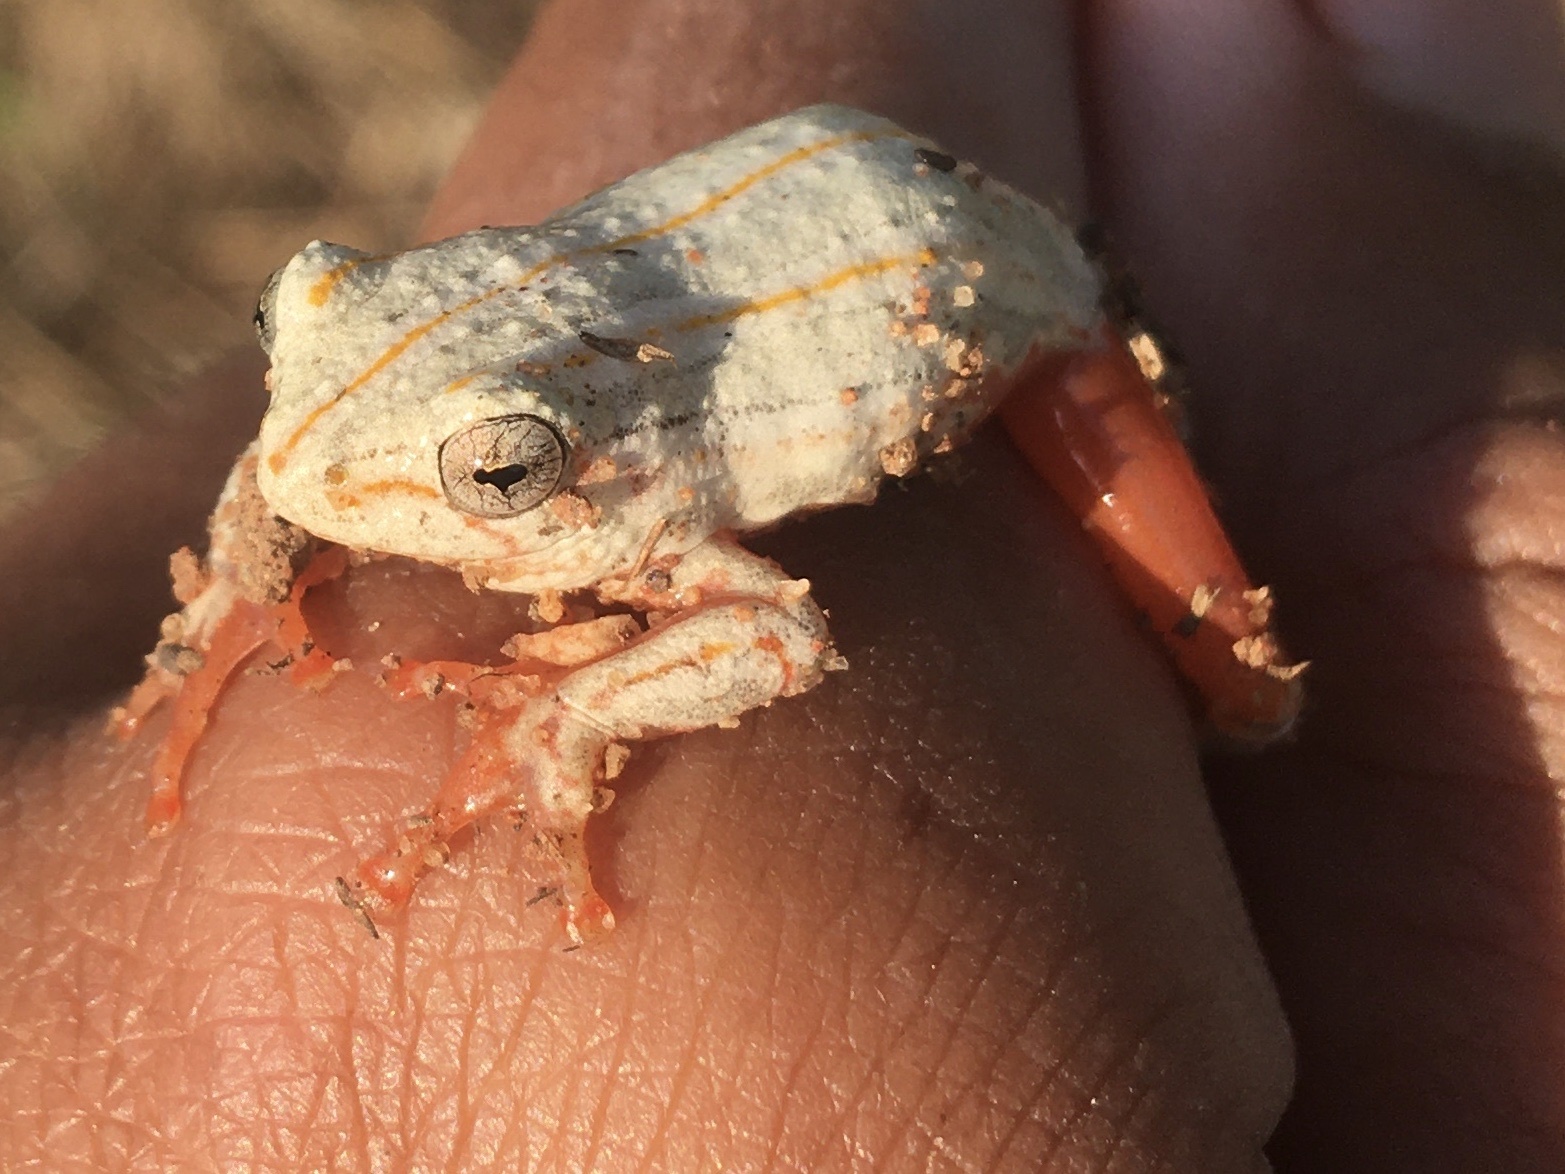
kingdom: Animalia
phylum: Chordata
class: Amphibia
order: Anura
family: Hyperoliidae
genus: Hyperolius
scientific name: Hyperolius marmoratus
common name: Painted reed frog
